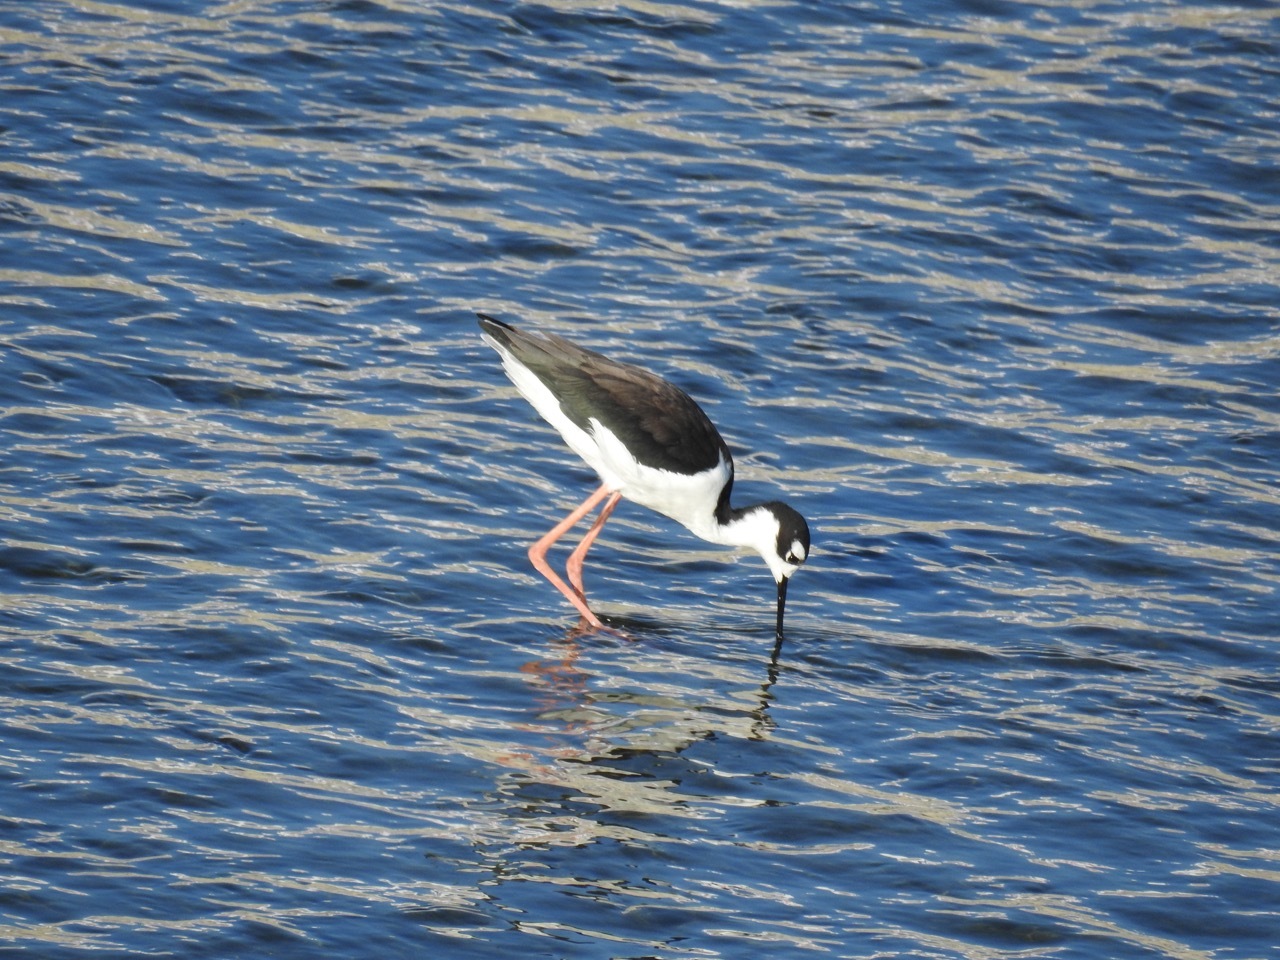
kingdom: Animalia
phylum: Chordata
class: Aves
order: Charadriiformes
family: Recurvirostridae
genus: Himantopus
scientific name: Himantopus mexicanus
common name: Black-necked stilt
